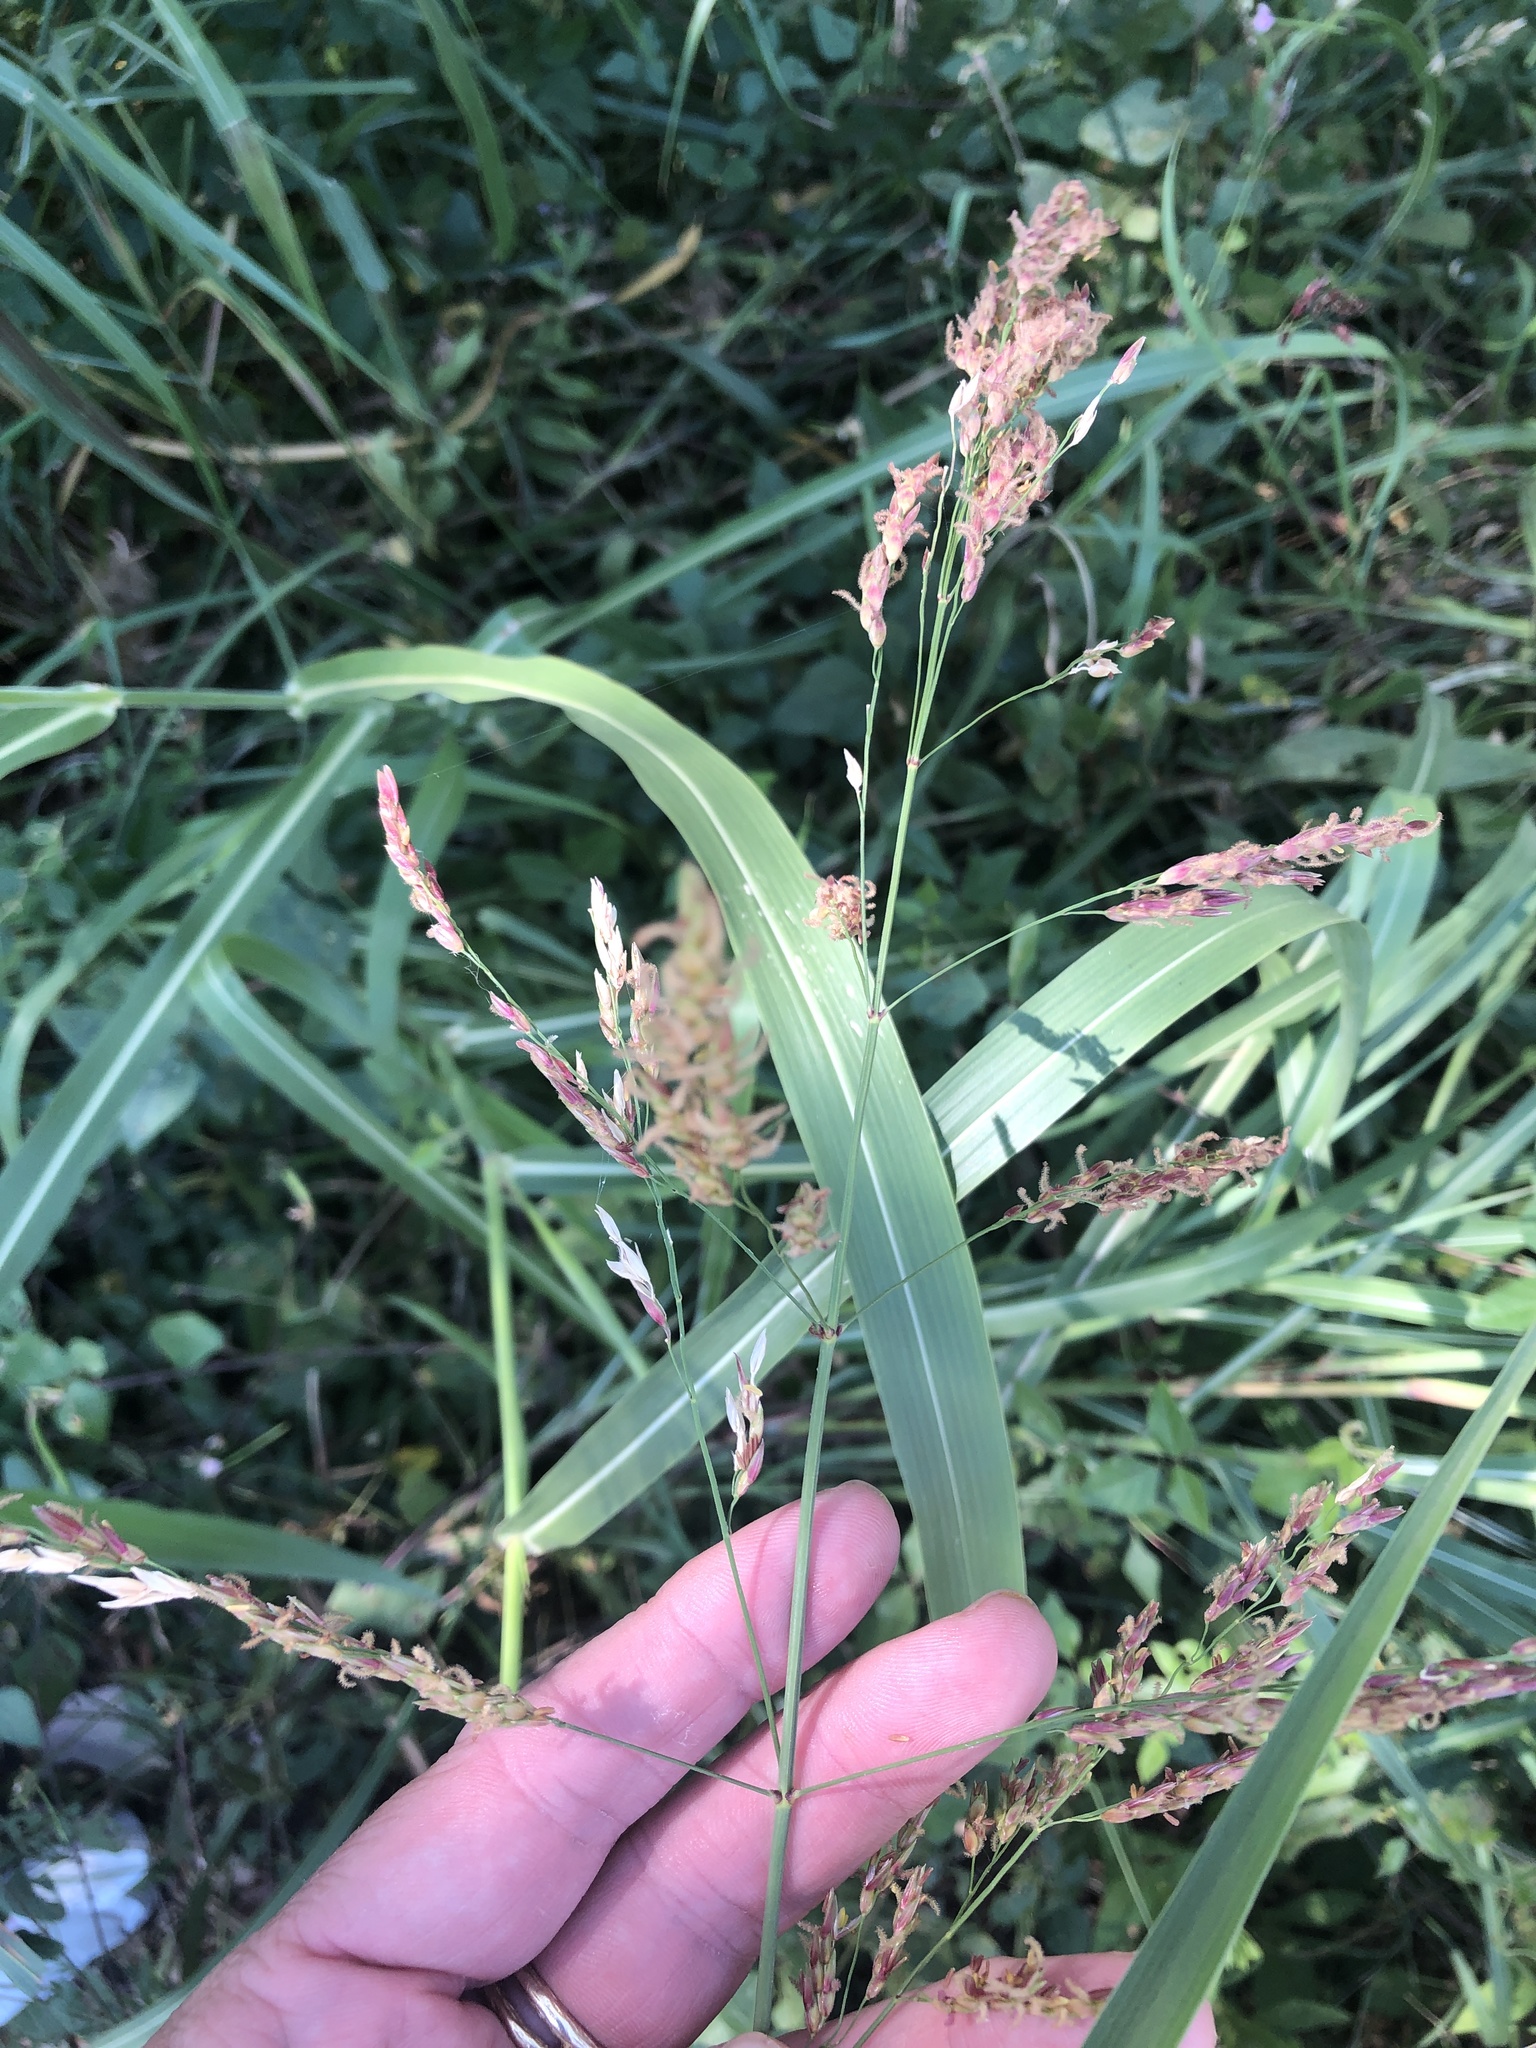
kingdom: Plantae
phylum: Tracheophyta
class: Liliopsida
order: Poales
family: Poaceae
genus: Sorghum
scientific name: Sorghum halepense
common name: Johnson-grass
